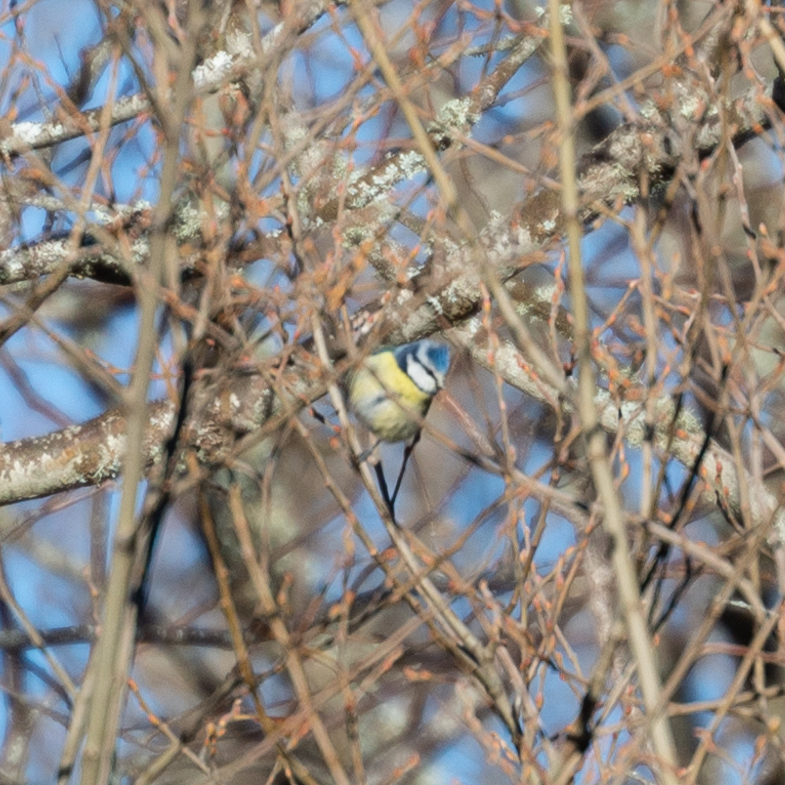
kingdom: Animalia
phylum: Chordata
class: Aves
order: Passeriformes
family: Paridae
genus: Cyanistes
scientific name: Cyanistes caeruleus
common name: Eurasian blue tit
